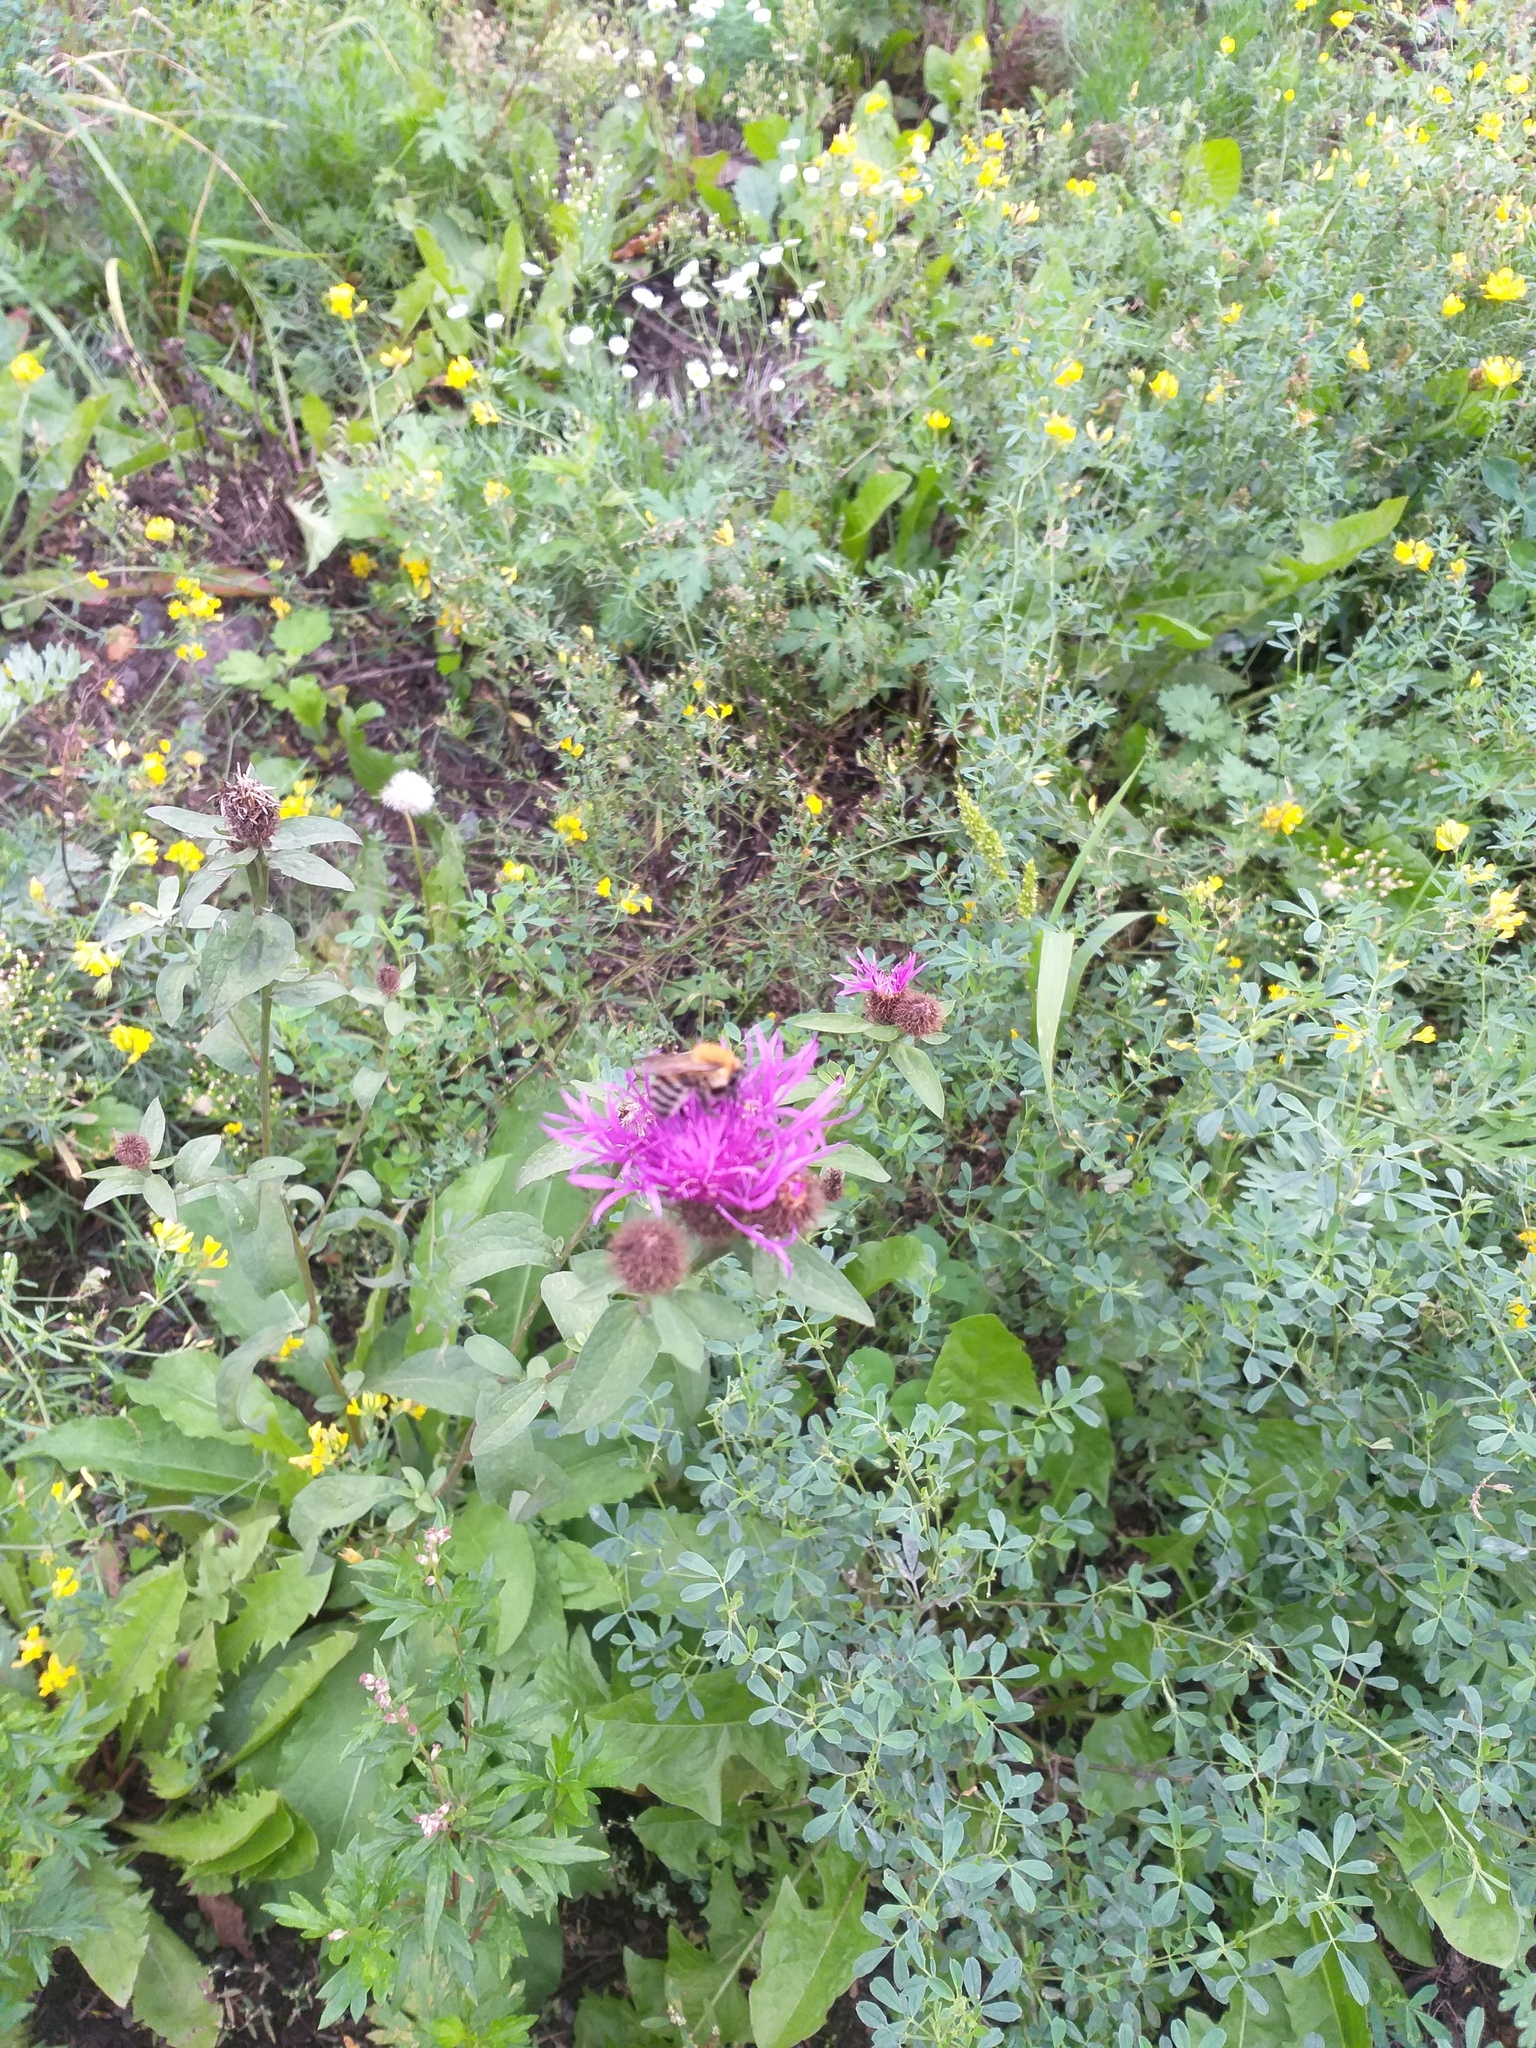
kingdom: Plantae
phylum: Tracheophyta
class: Magnoliopsida
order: Asterales
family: Asteraceae
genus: Centaurea
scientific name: Centaurea pseudophrygia
